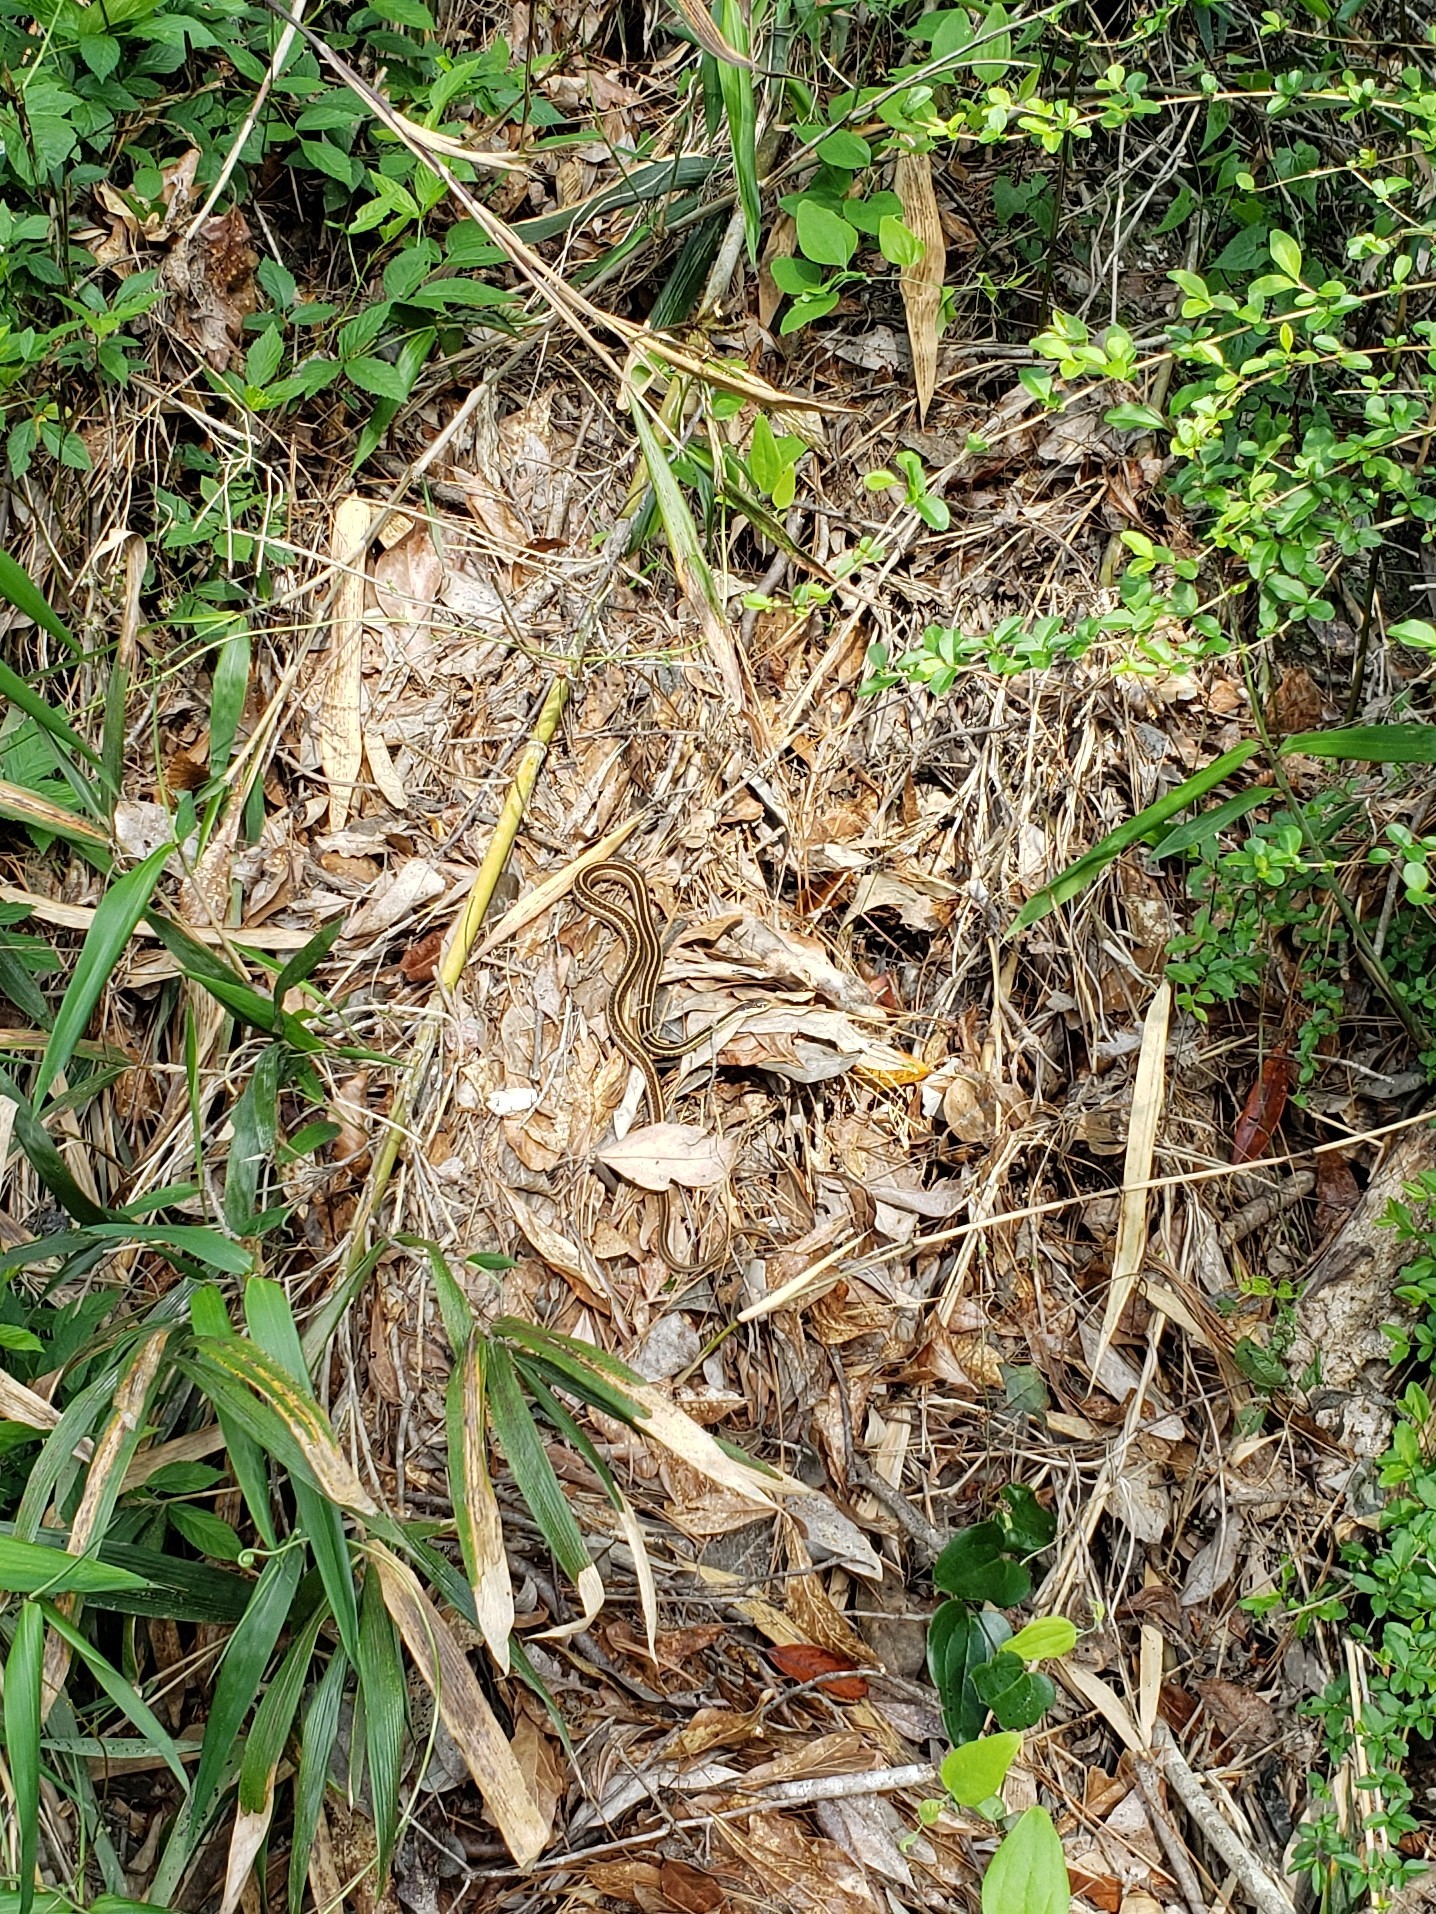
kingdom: Animalia
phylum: Chordata
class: Squamata
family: Colubridae
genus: Thamnophis
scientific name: Thamnophis saurita
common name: Eastern ribbonsnake
